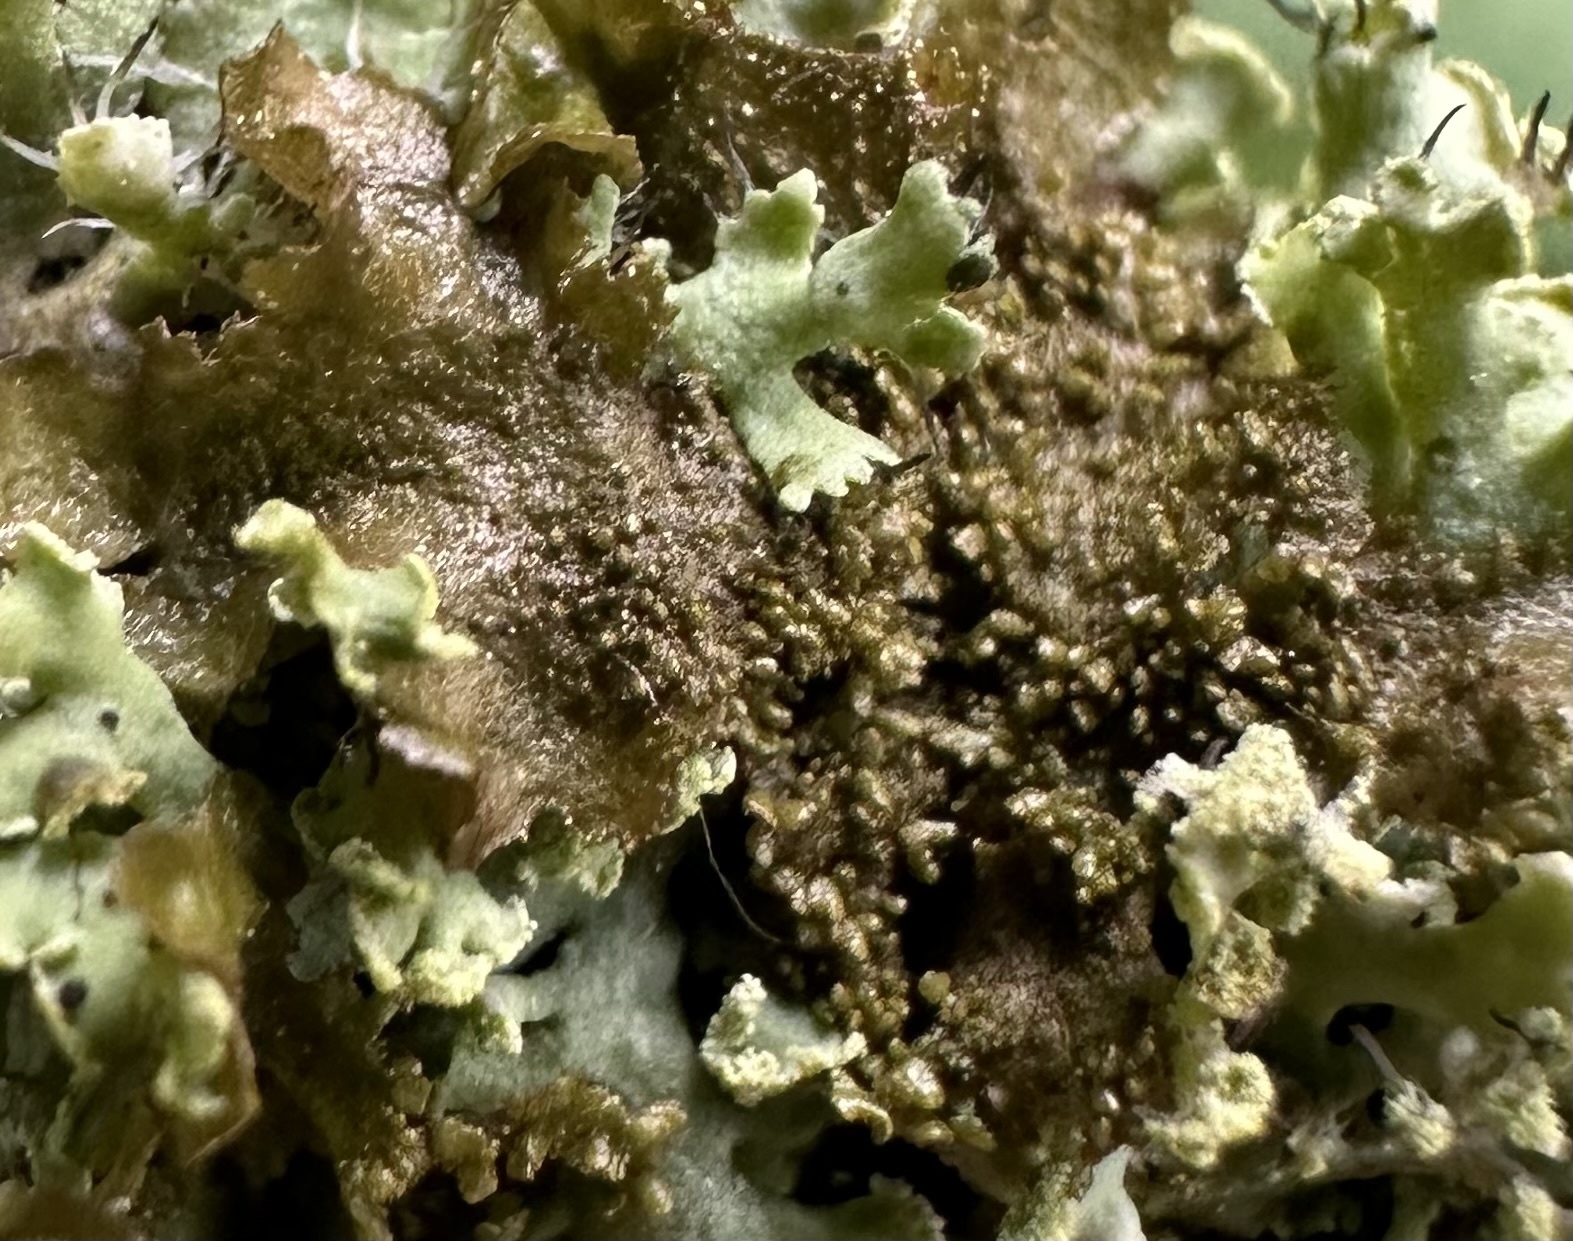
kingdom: Fungi
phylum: Ascomycota
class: Lecanoromycetes
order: Lecanorales
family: Parmeliaceae
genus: Melanohalea
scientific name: Melanohalea exasperatula
